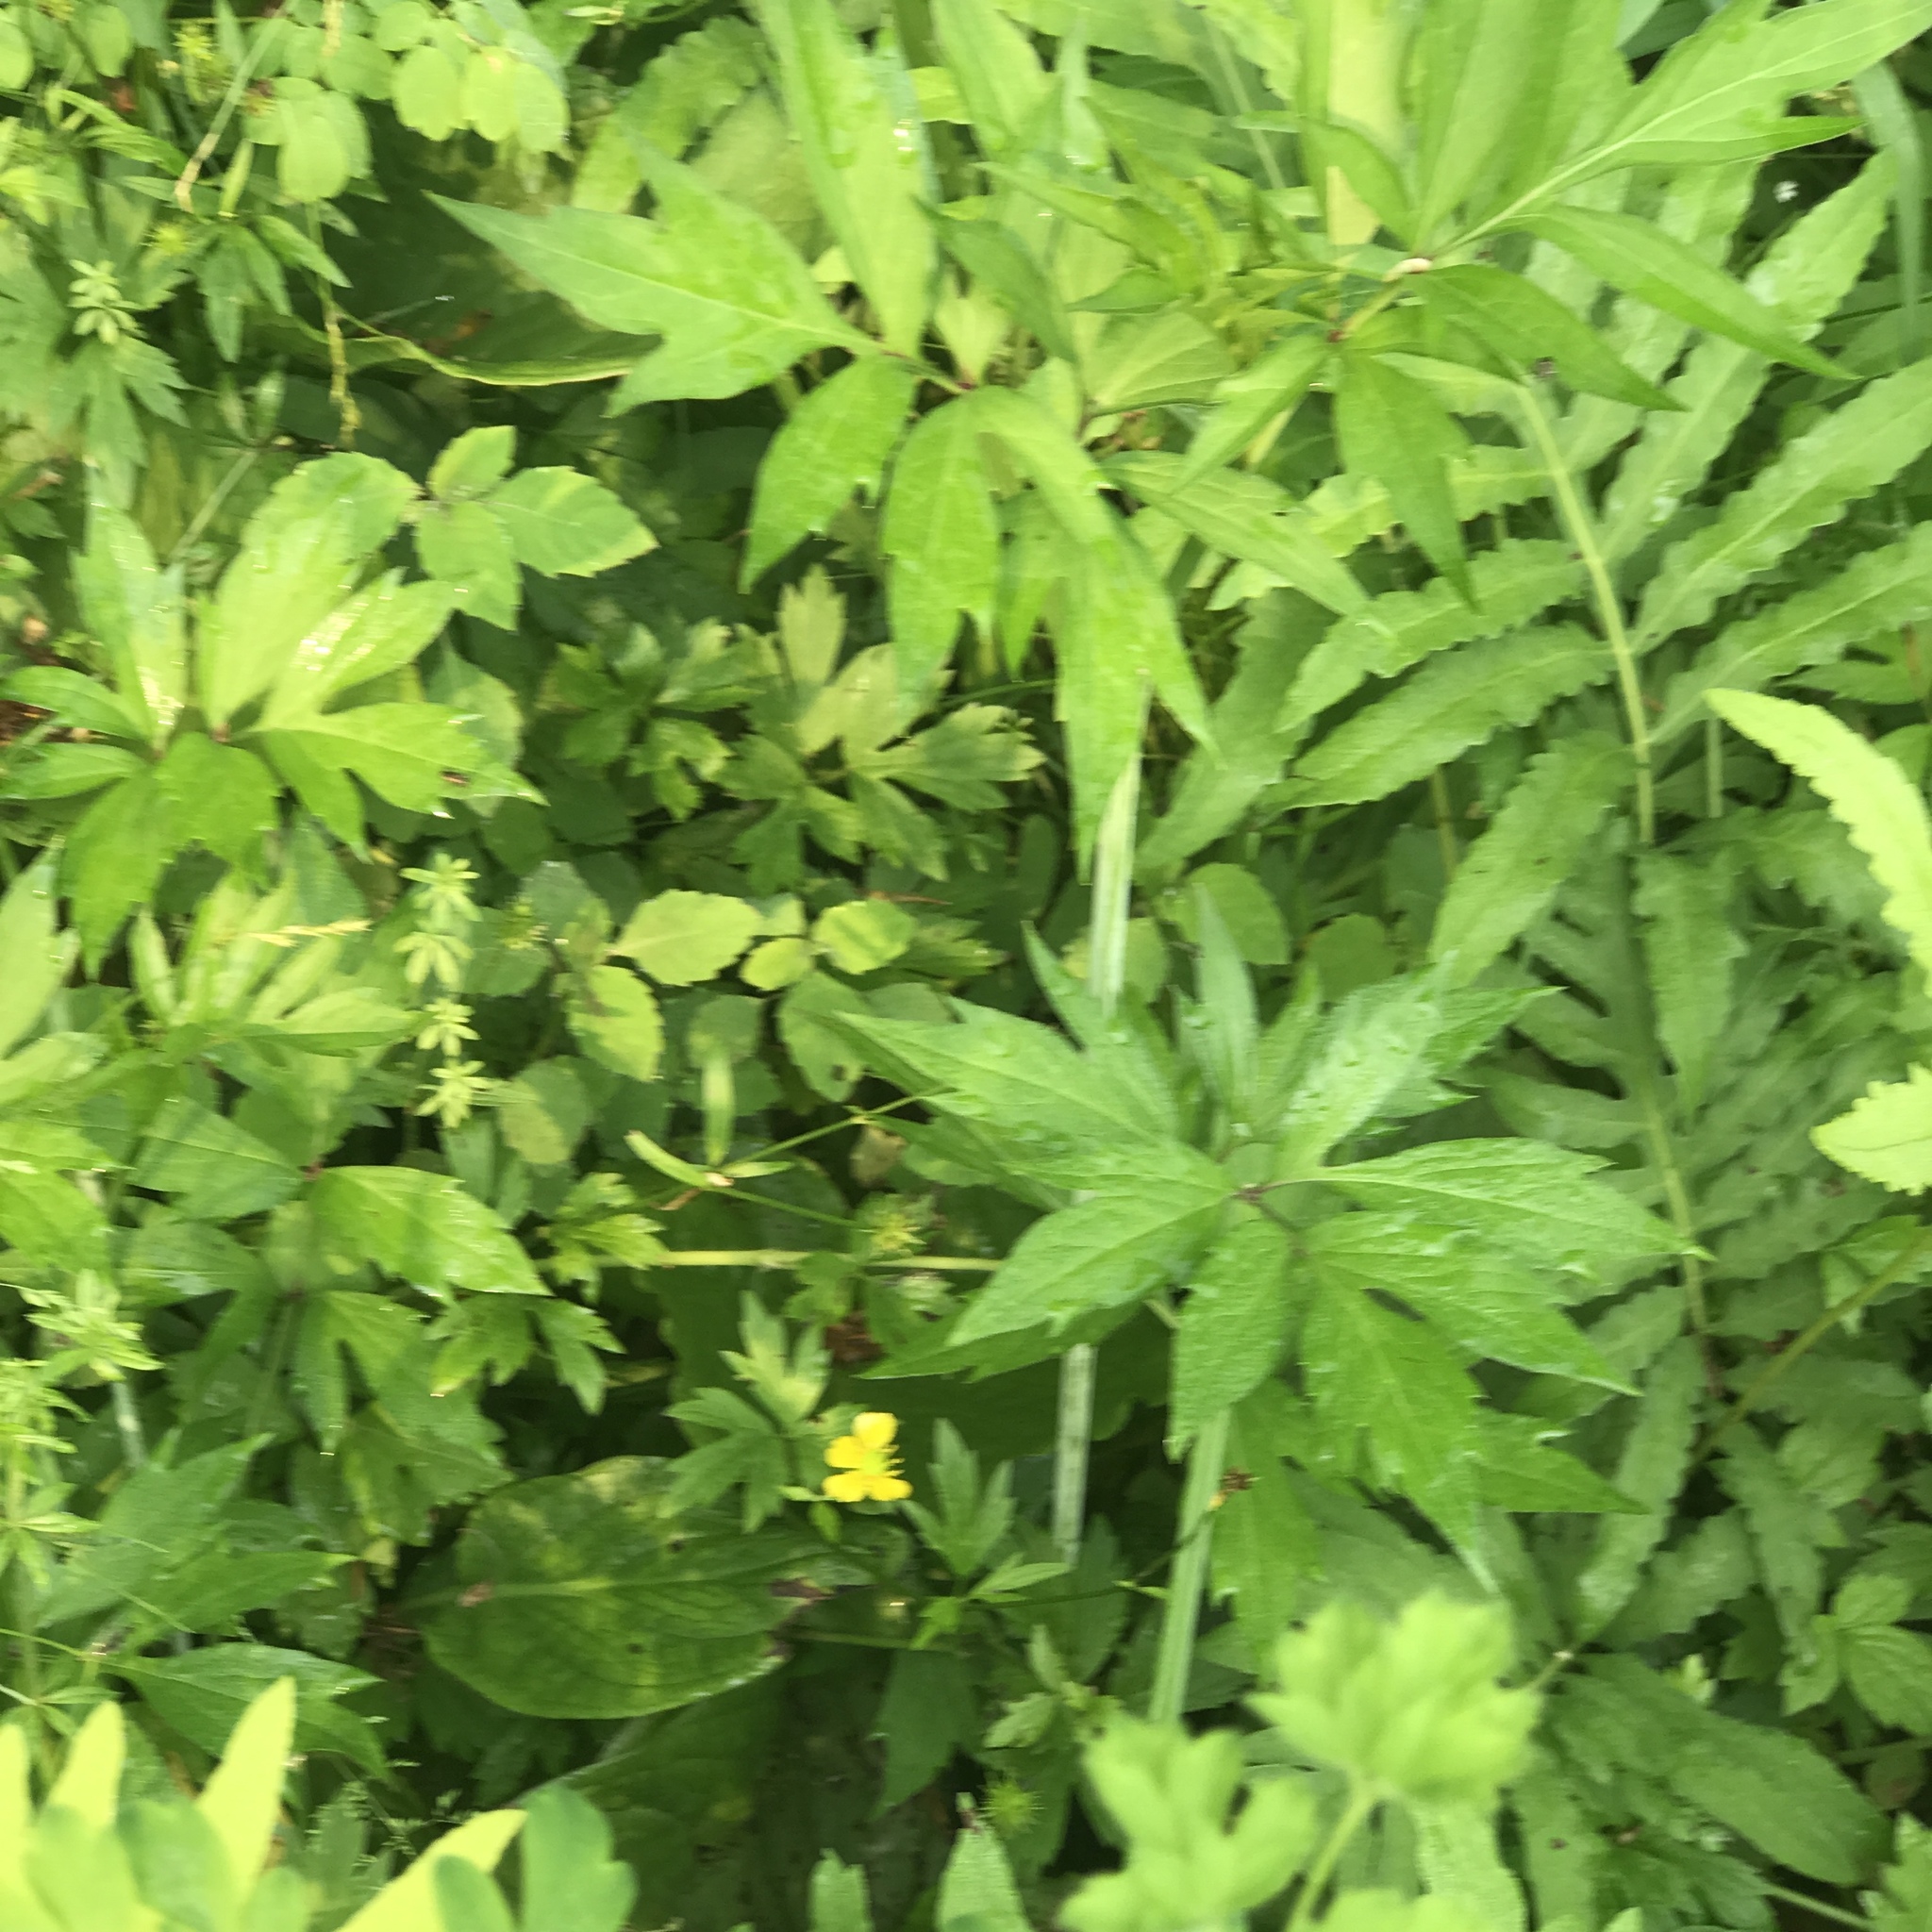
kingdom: Plantae
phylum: Tracheophyta
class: Magnoliopsida
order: Asterales
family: Asteraceae
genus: Rudbeckia
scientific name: Rudbeckia laciniata
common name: Coneflower
